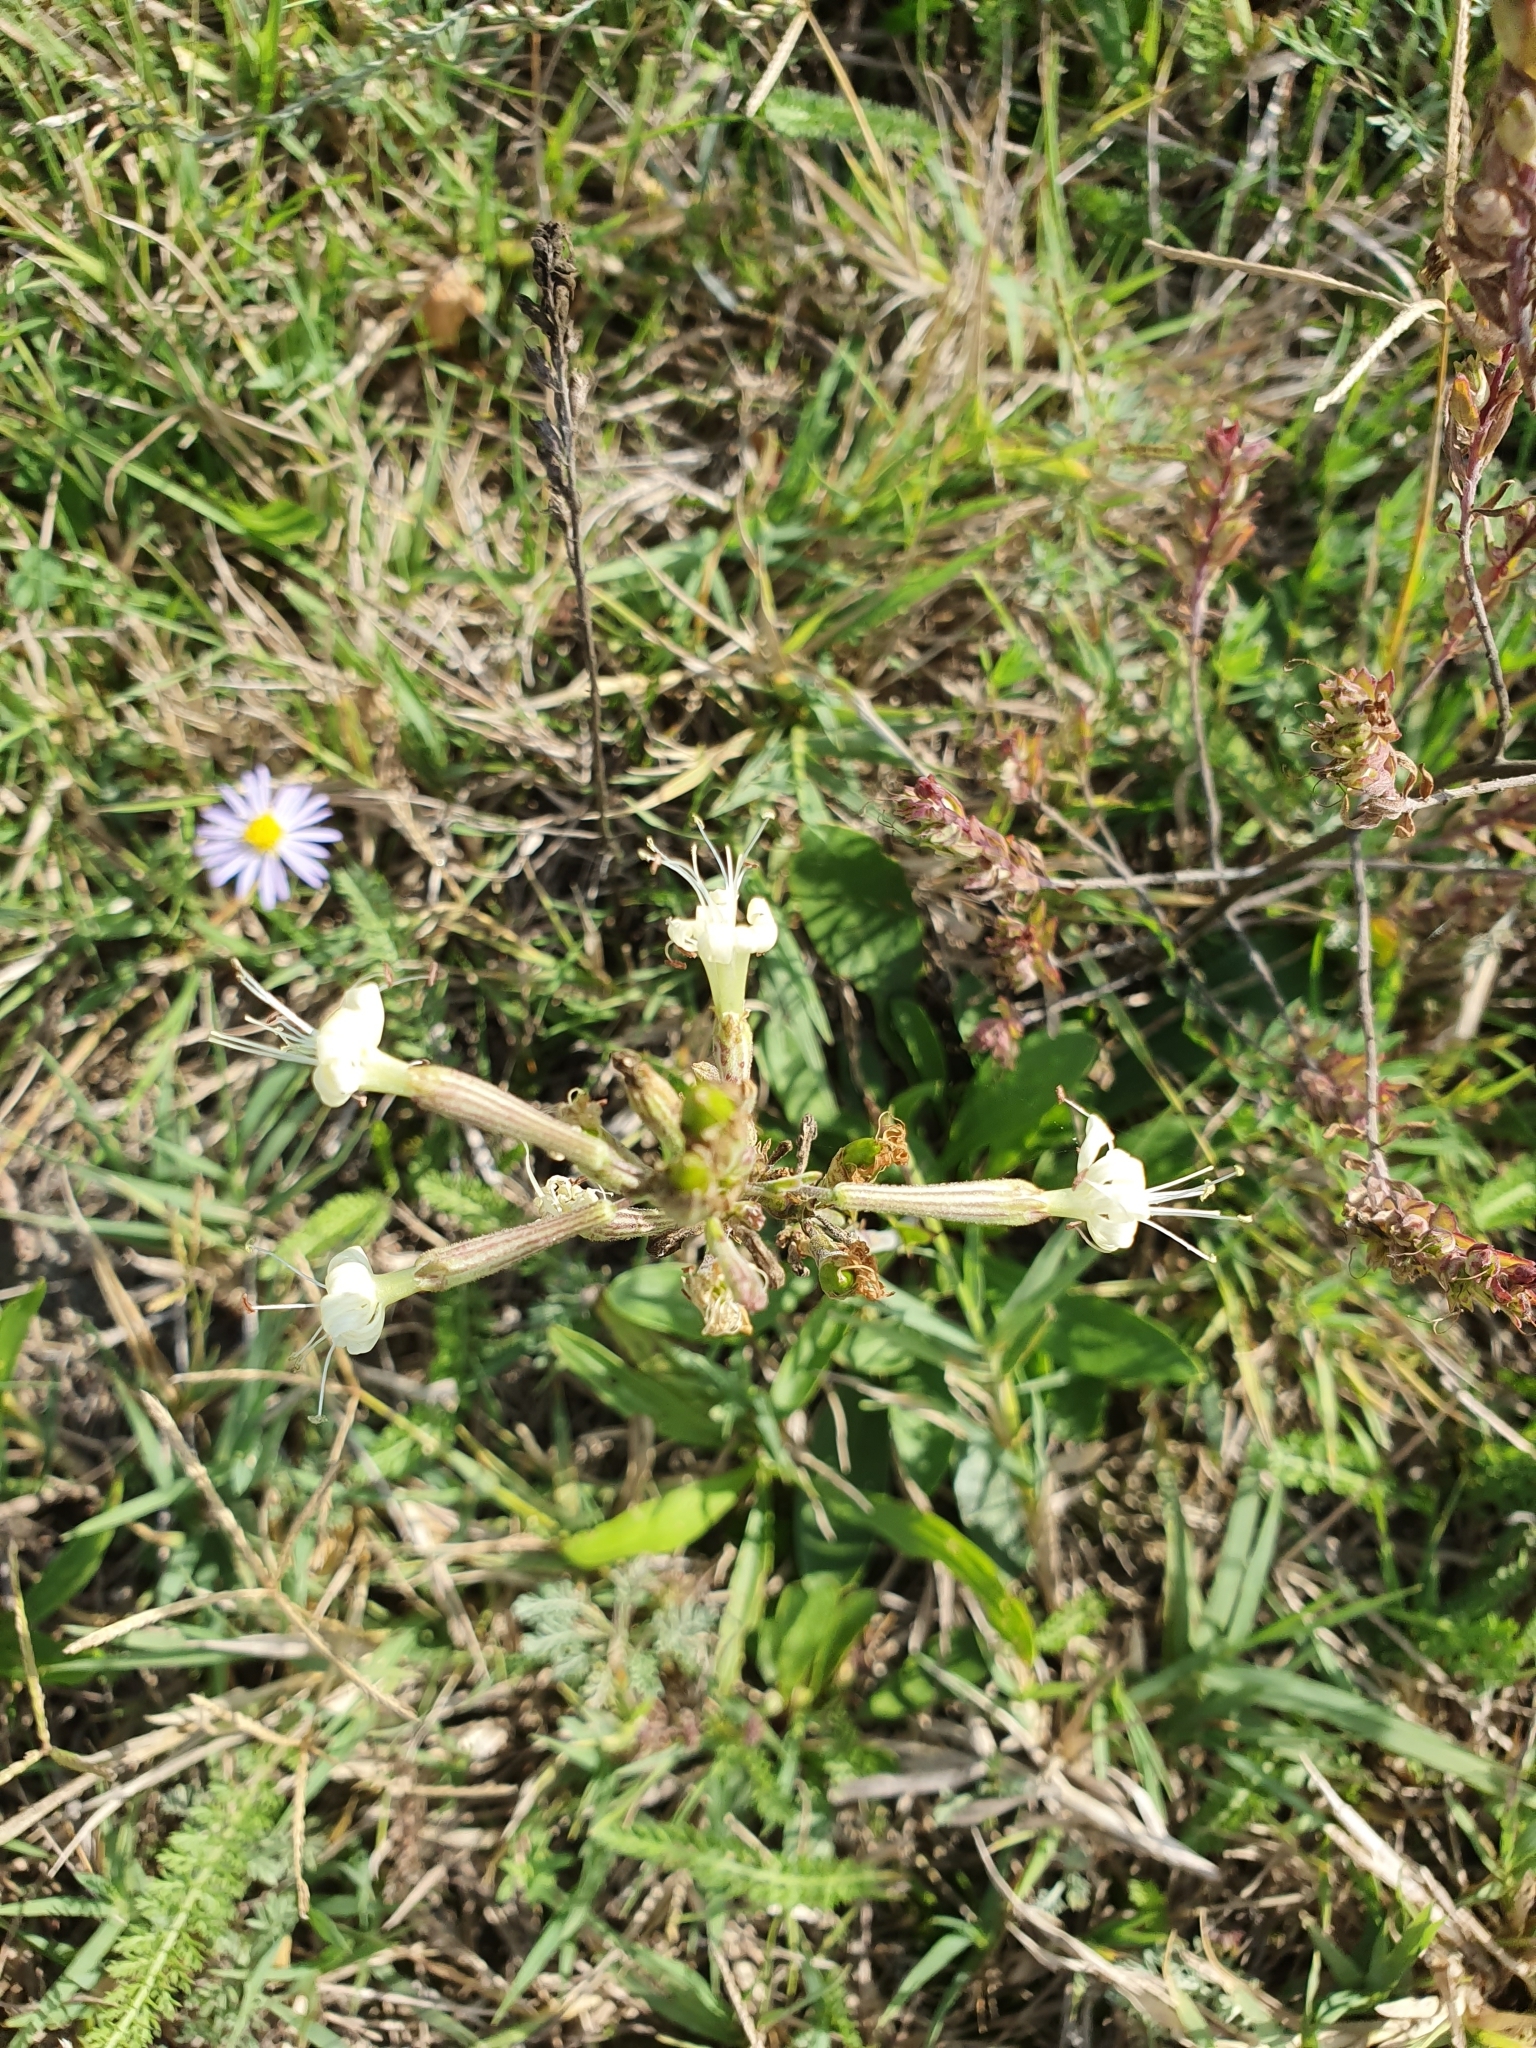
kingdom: Plantae
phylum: Tracheophyta
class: Magnoliopsida
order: Caryophyllales
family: Caryophyllaceae
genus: Silene
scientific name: Silene multiflora
